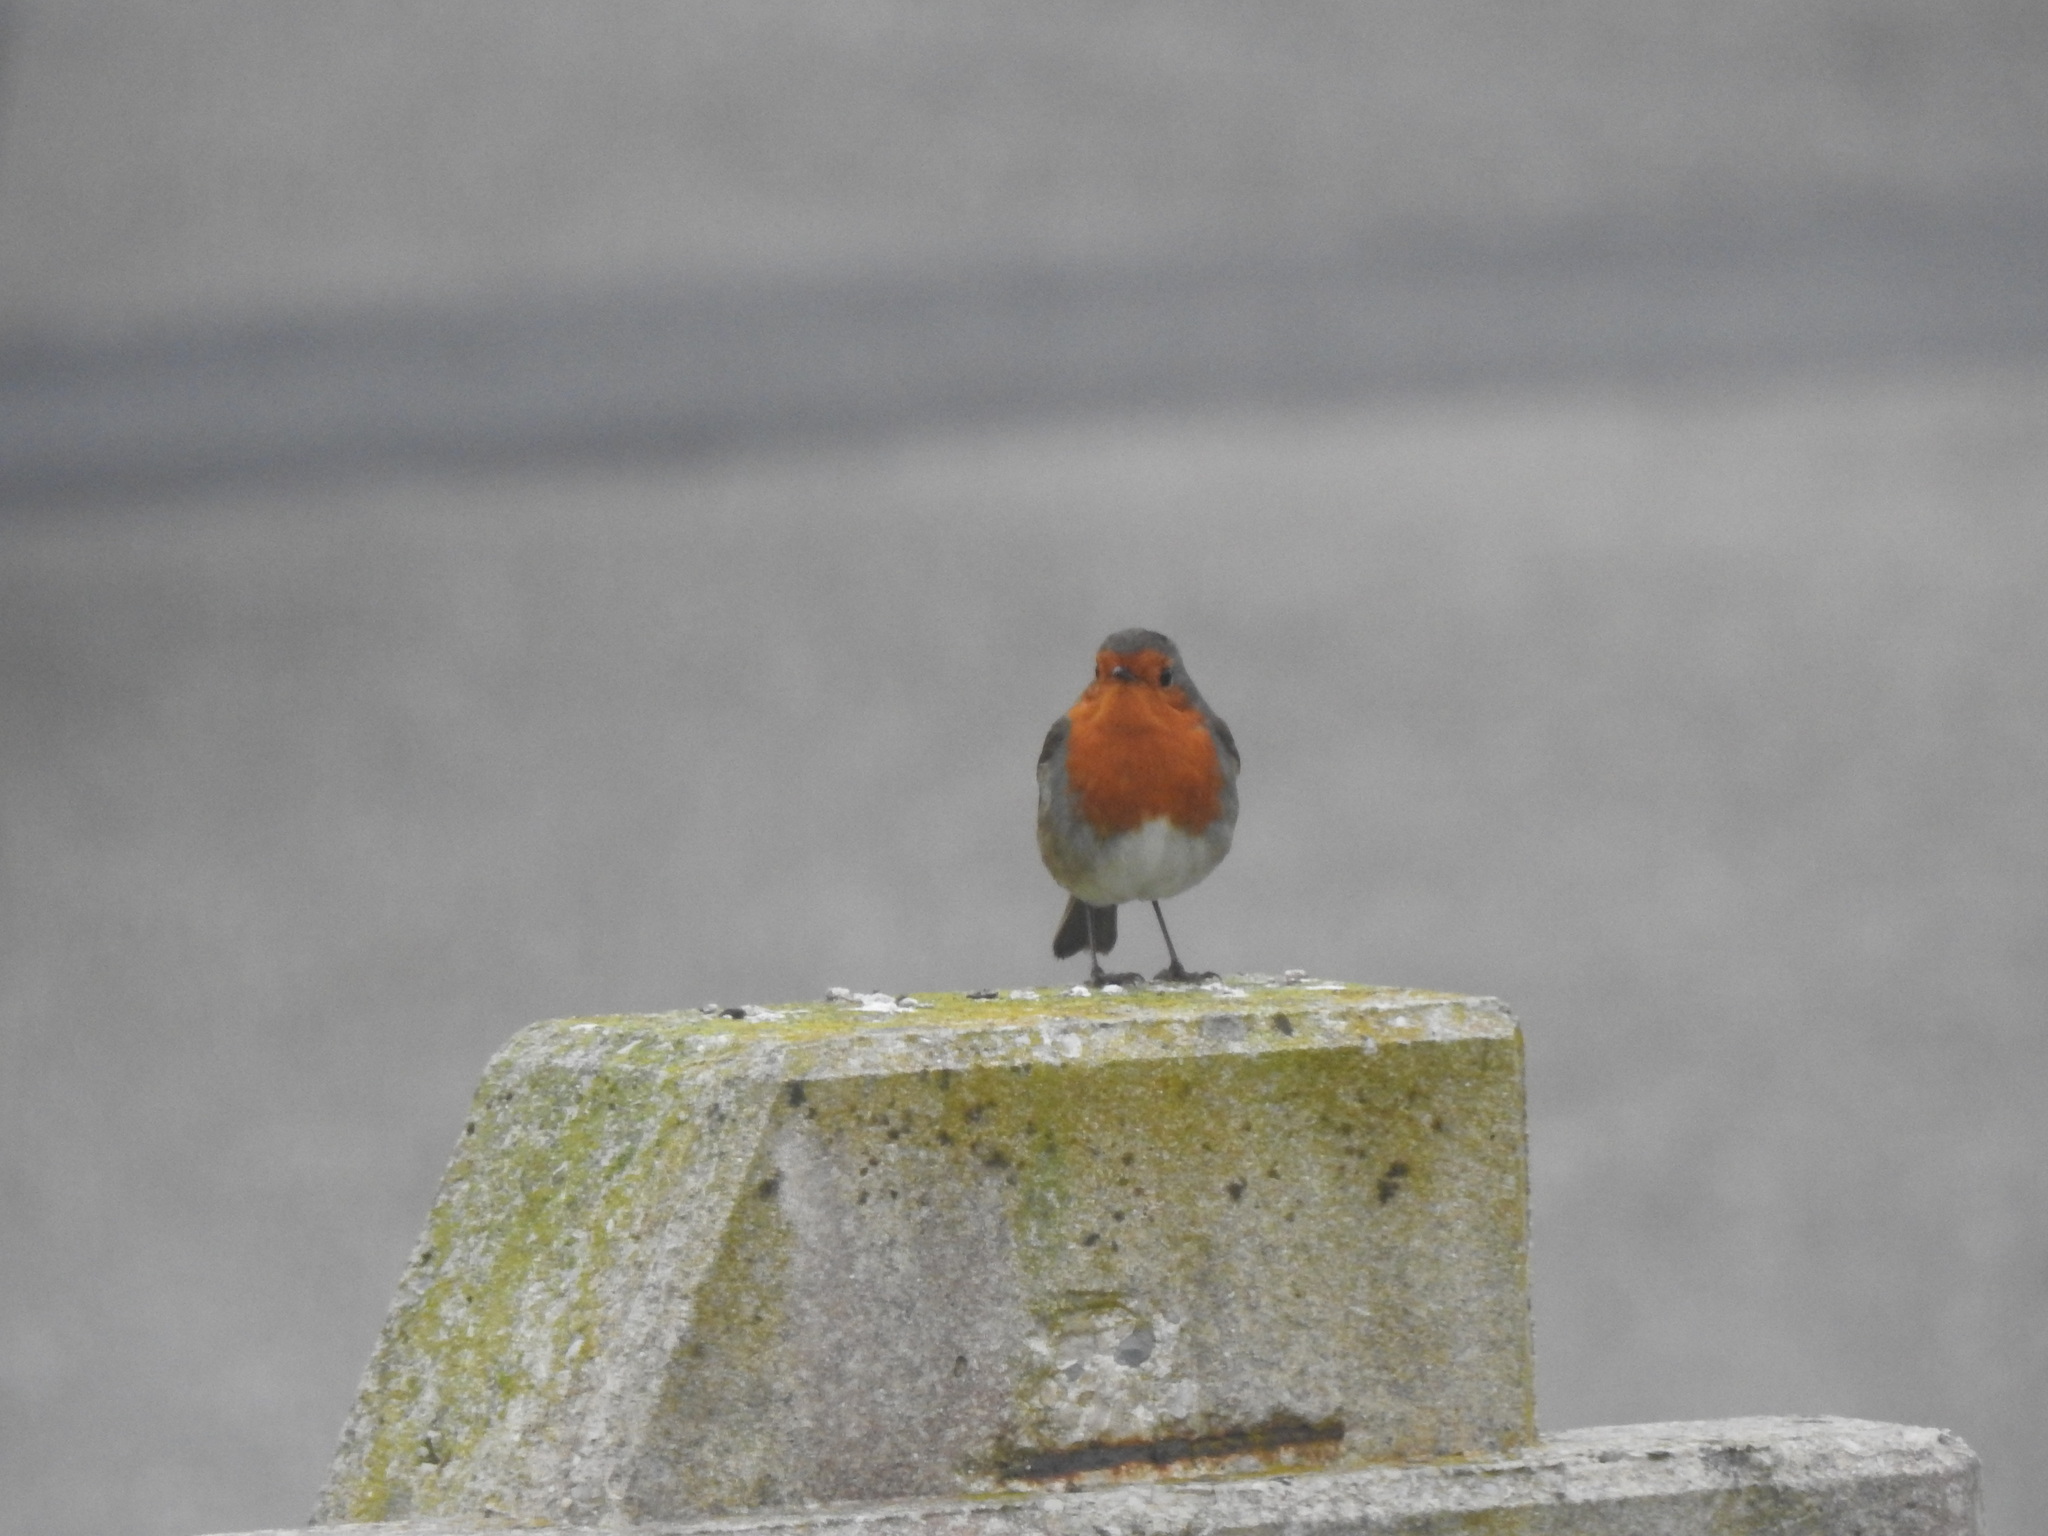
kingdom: Animalia
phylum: Chordata
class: Aves
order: Passeriformes
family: Muscicapidae
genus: Erithacus
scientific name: Erithacus rubecula
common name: European robin
